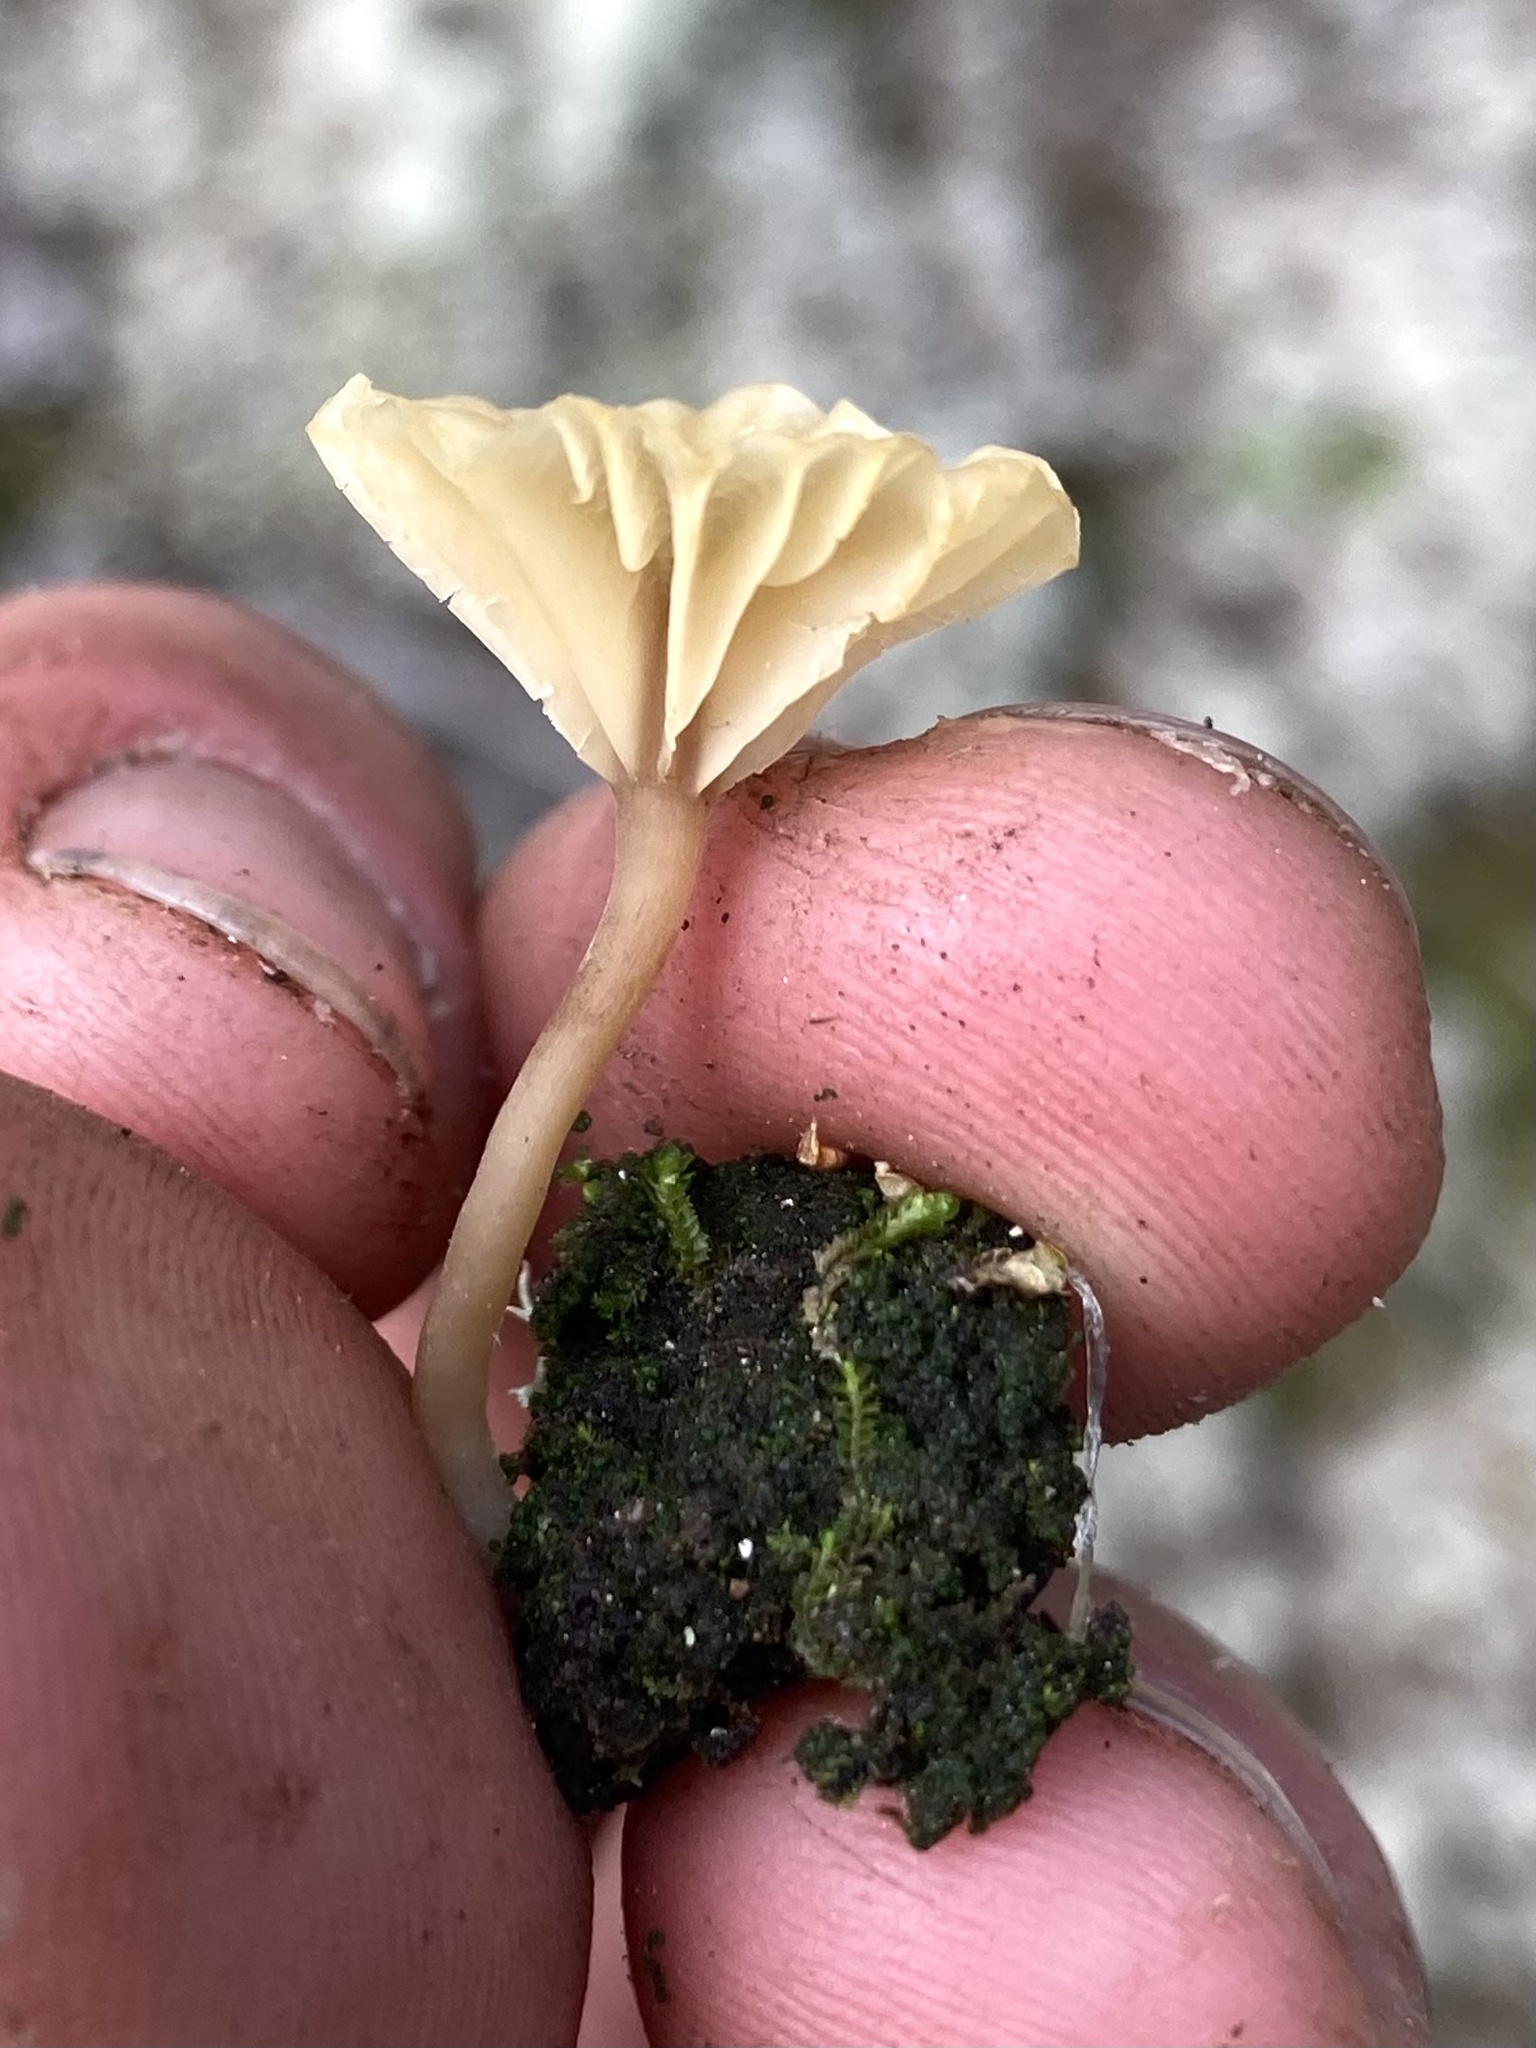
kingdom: Fungi
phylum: Basidiomycota
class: Agaricomycetes
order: Agaricales
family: Hygrophoraceae
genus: Lichenomphalia
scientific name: Lichenomphalia
